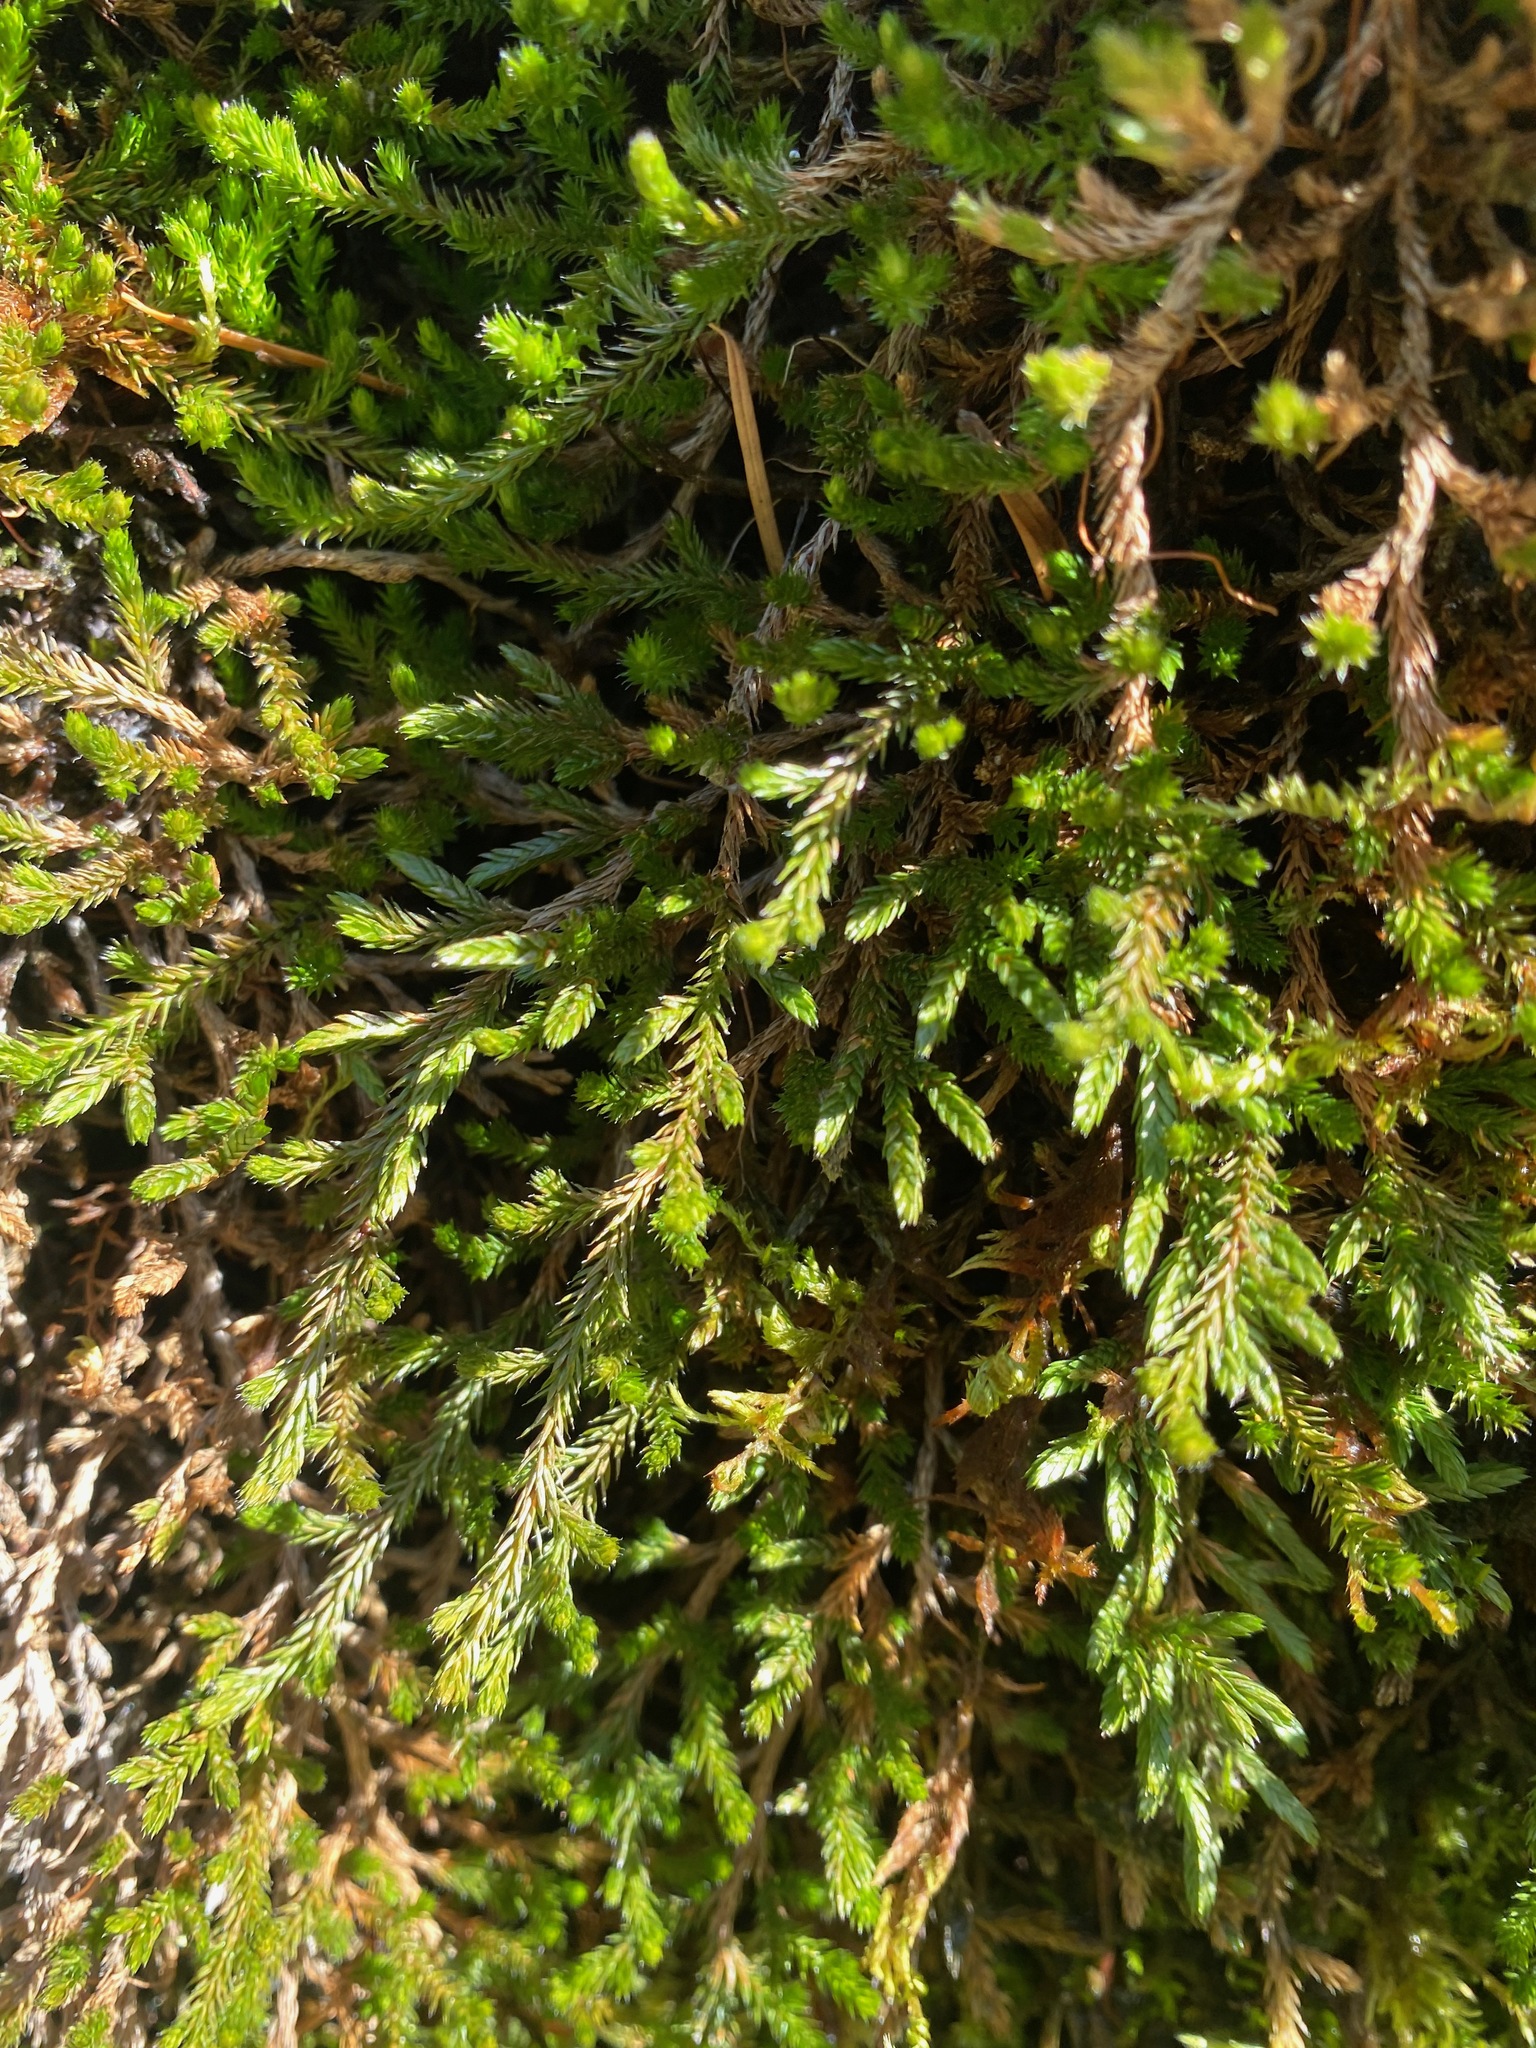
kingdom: Plantae
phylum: Tracheophyta
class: Lycopodiopsida
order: Selaginellales
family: Selaginellaceae
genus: Selaginella
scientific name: Selaginella wallacei
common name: Wallace's selaginella
